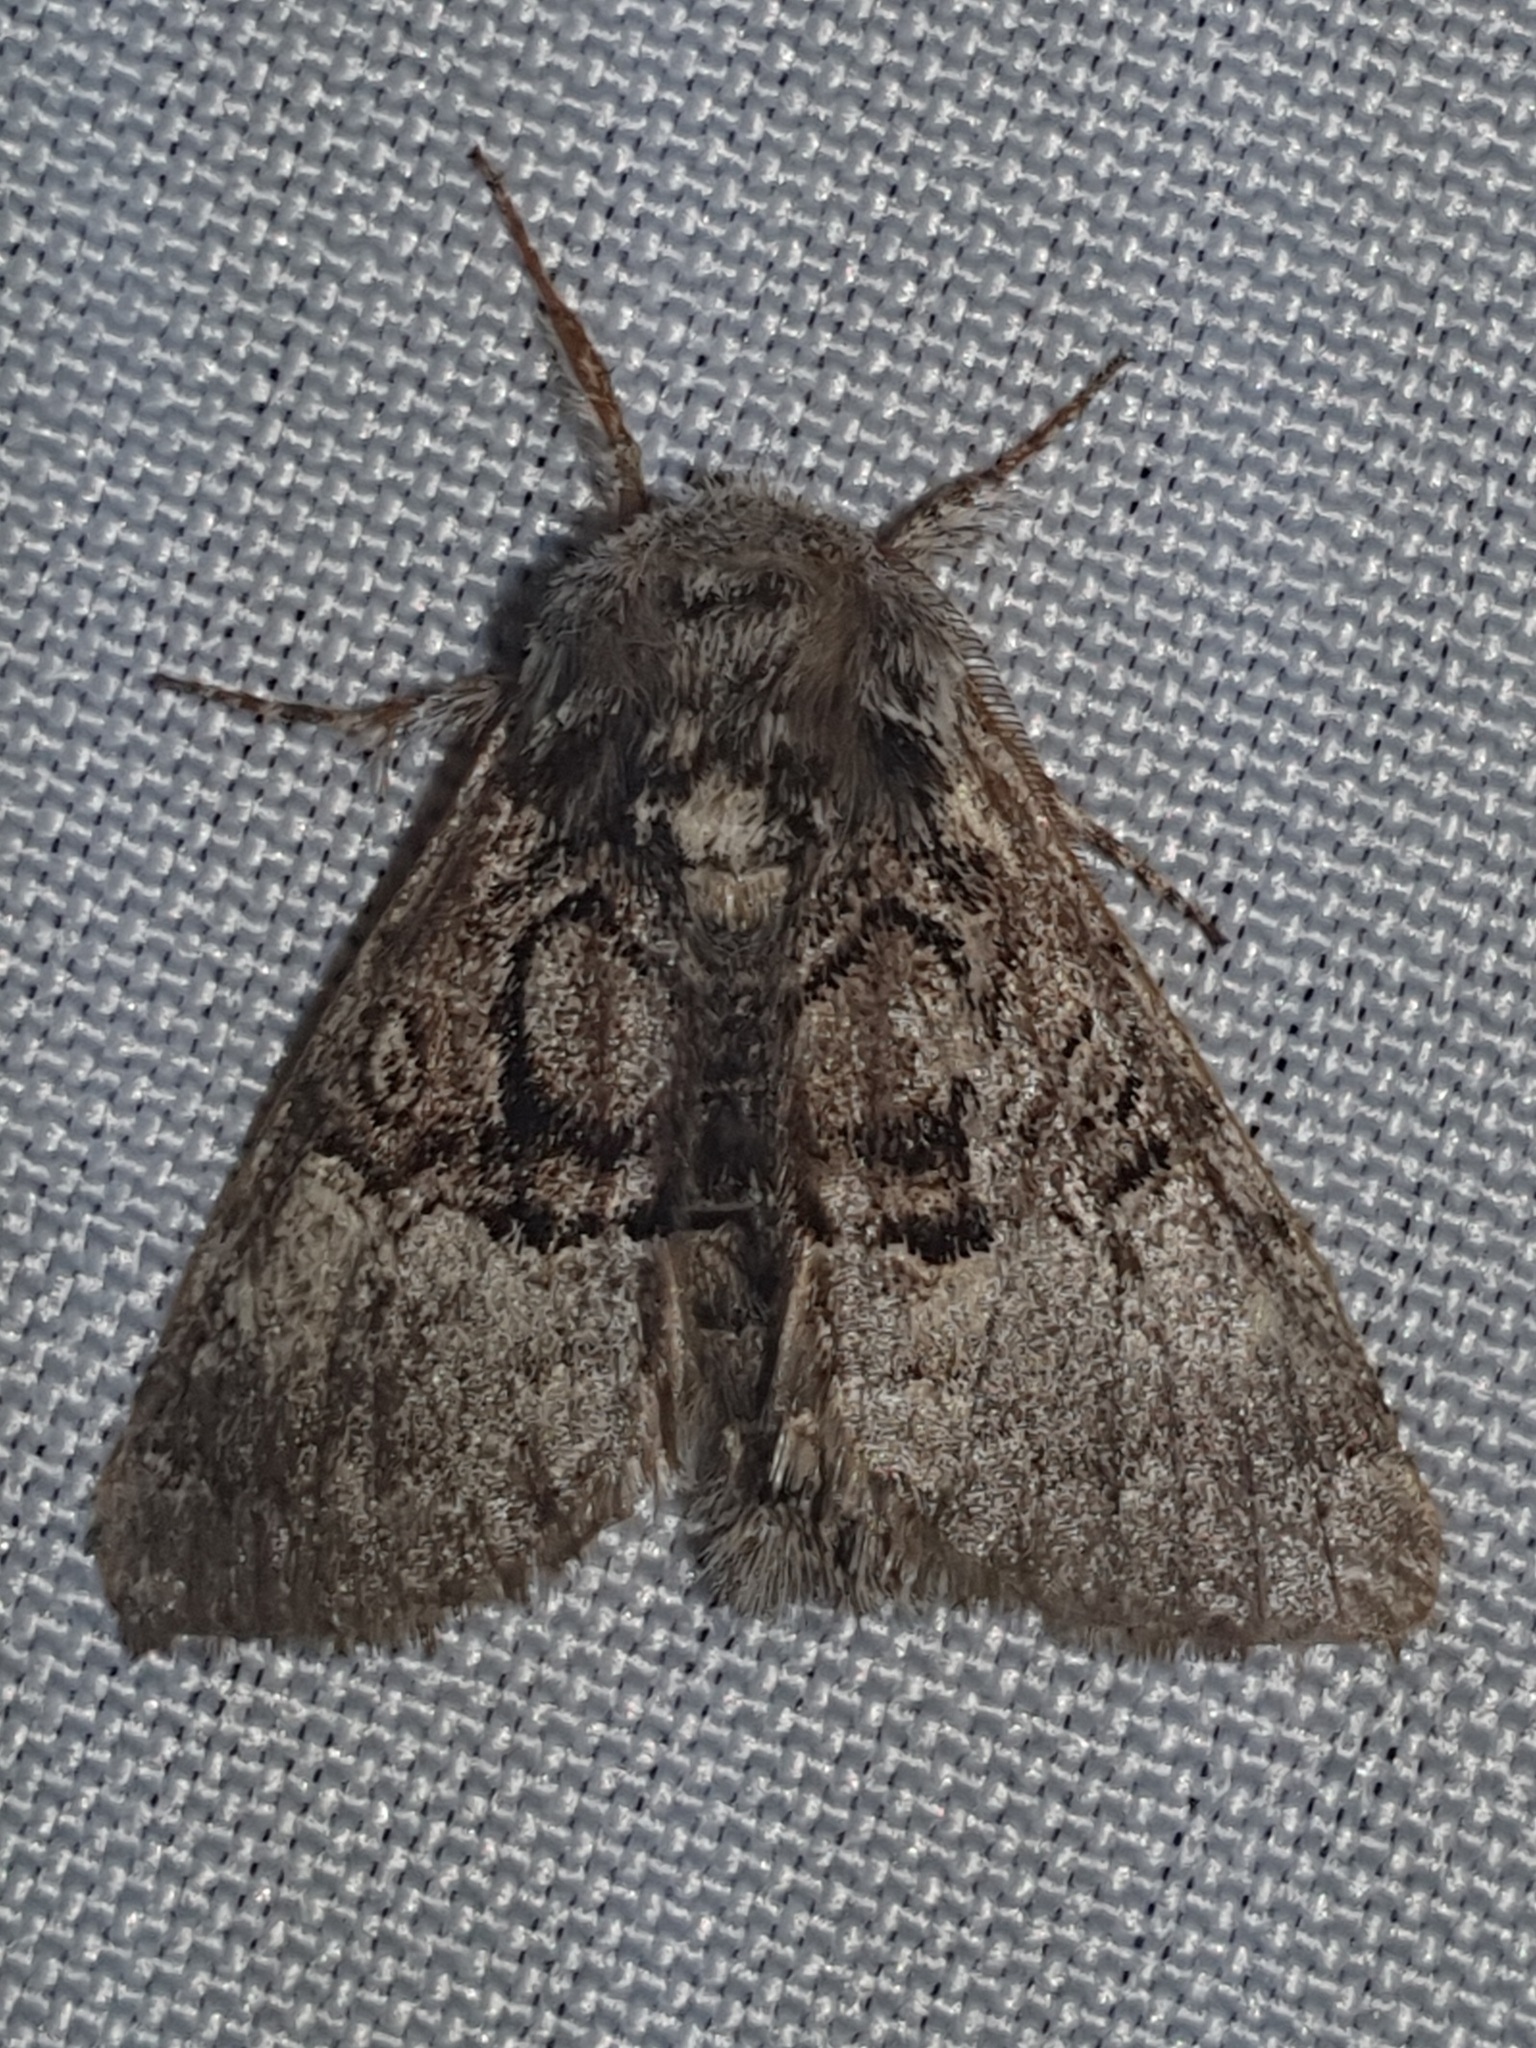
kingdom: Animalia
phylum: Arthropoda
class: Insecta
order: Lepidoptera
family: Noctuidae
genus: Colocasia
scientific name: Colocasia coryli
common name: Nut-tree tussock
